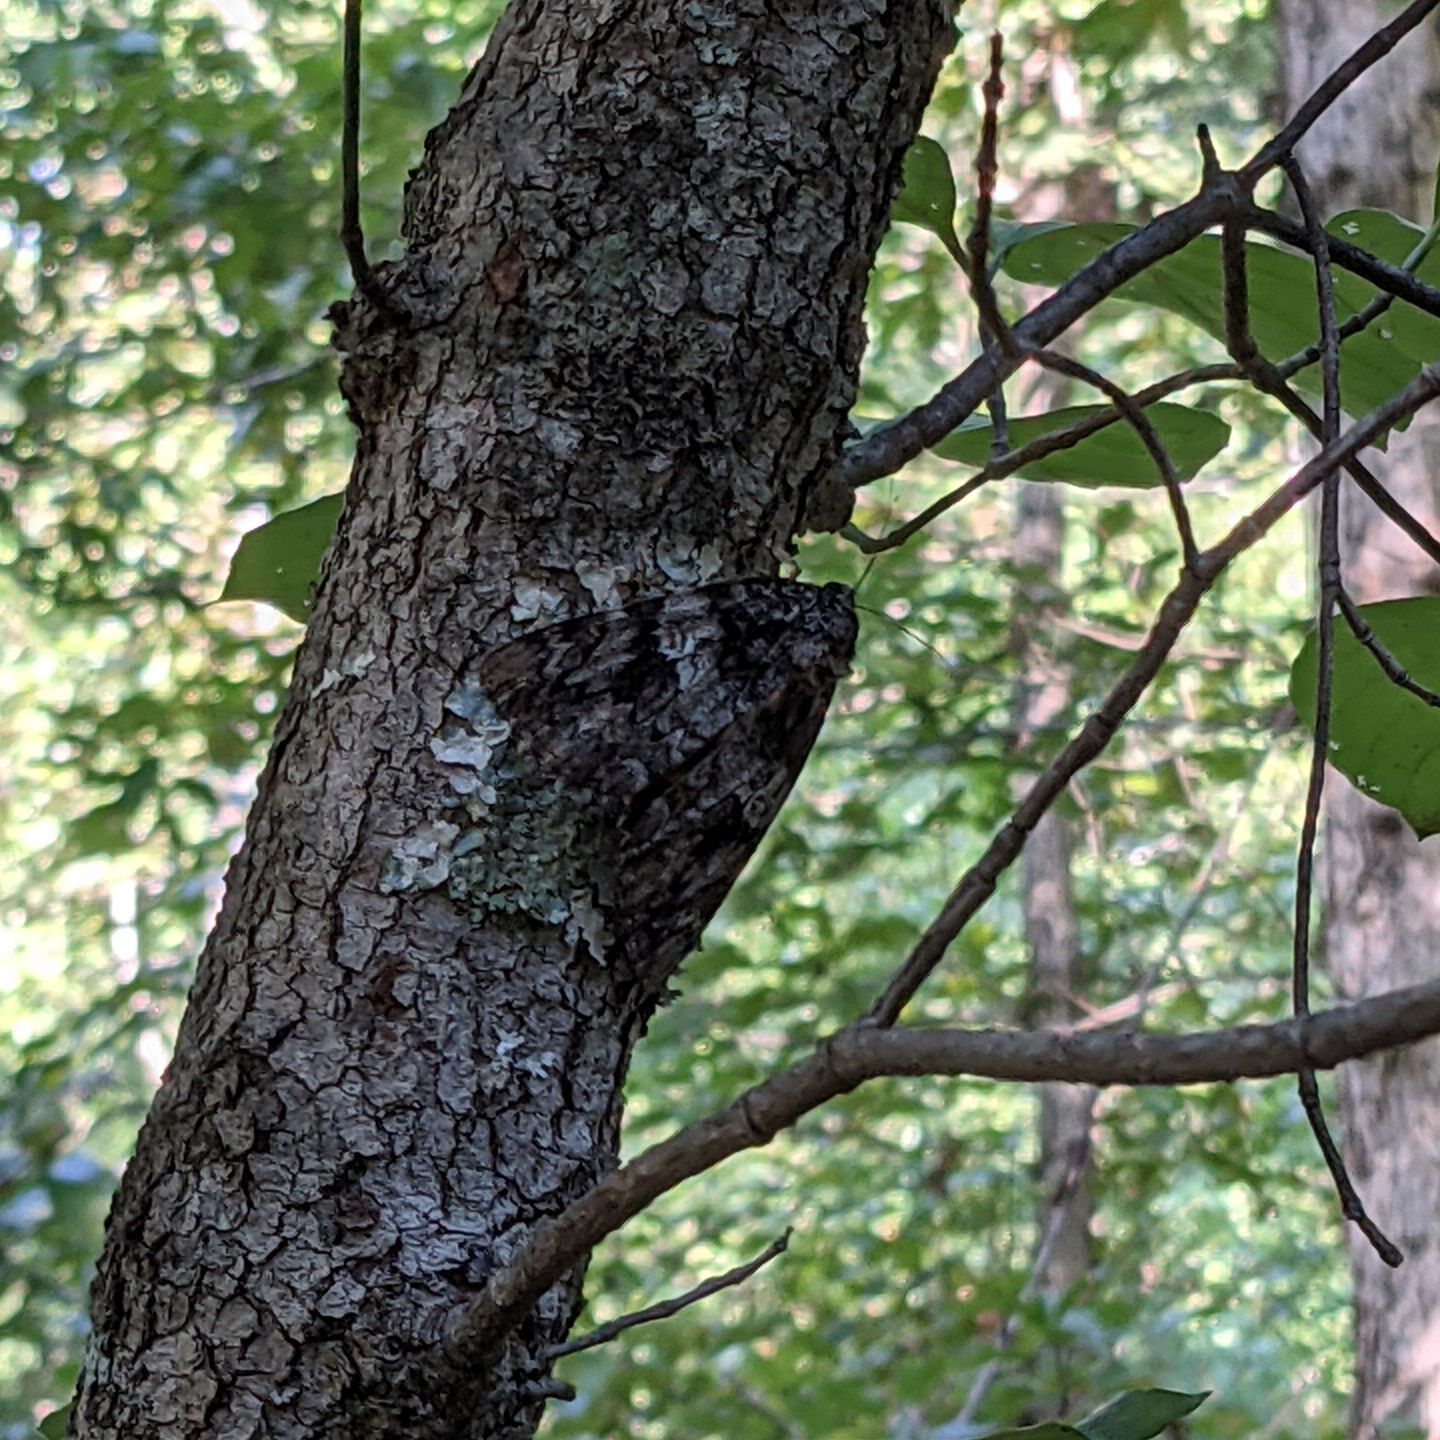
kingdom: Animalia
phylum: Arthropoda
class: Insecta
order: Lepidoptera
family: Erebidae
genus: Catocala
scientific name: Catocala ilia
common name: Ilia underwing
